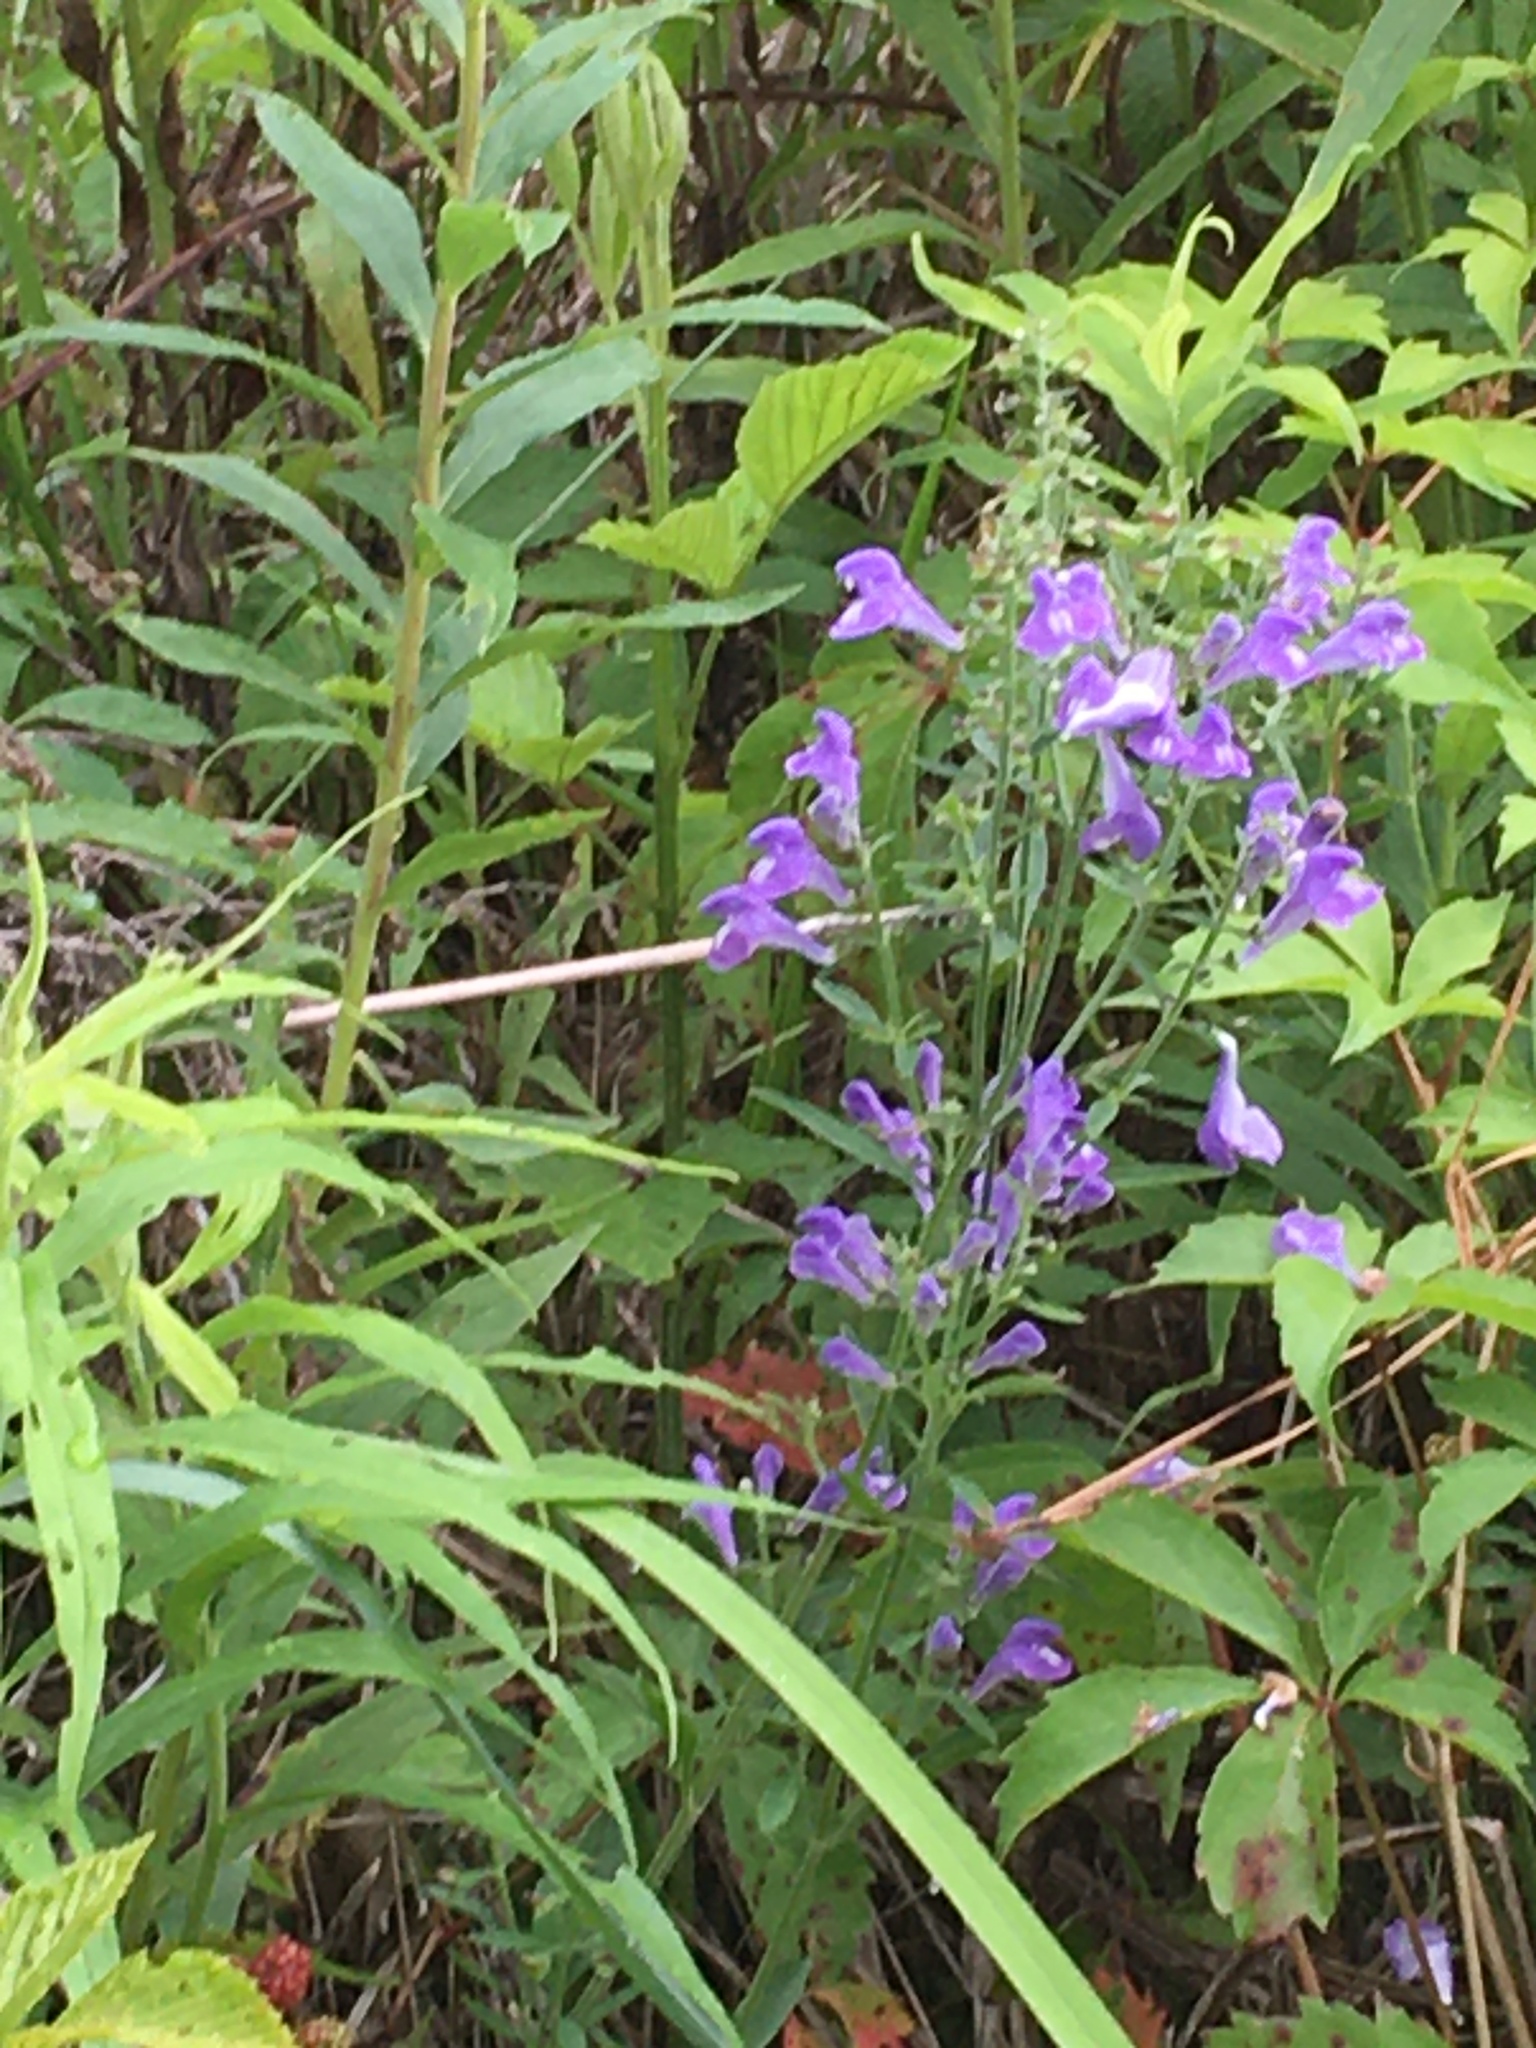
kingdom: Plantae
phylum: Tracheophyta
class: Magnoliopsida
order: Lamiales
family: Lamiaceae
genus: Scutellaria
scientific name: Scutellaria integrifolia
